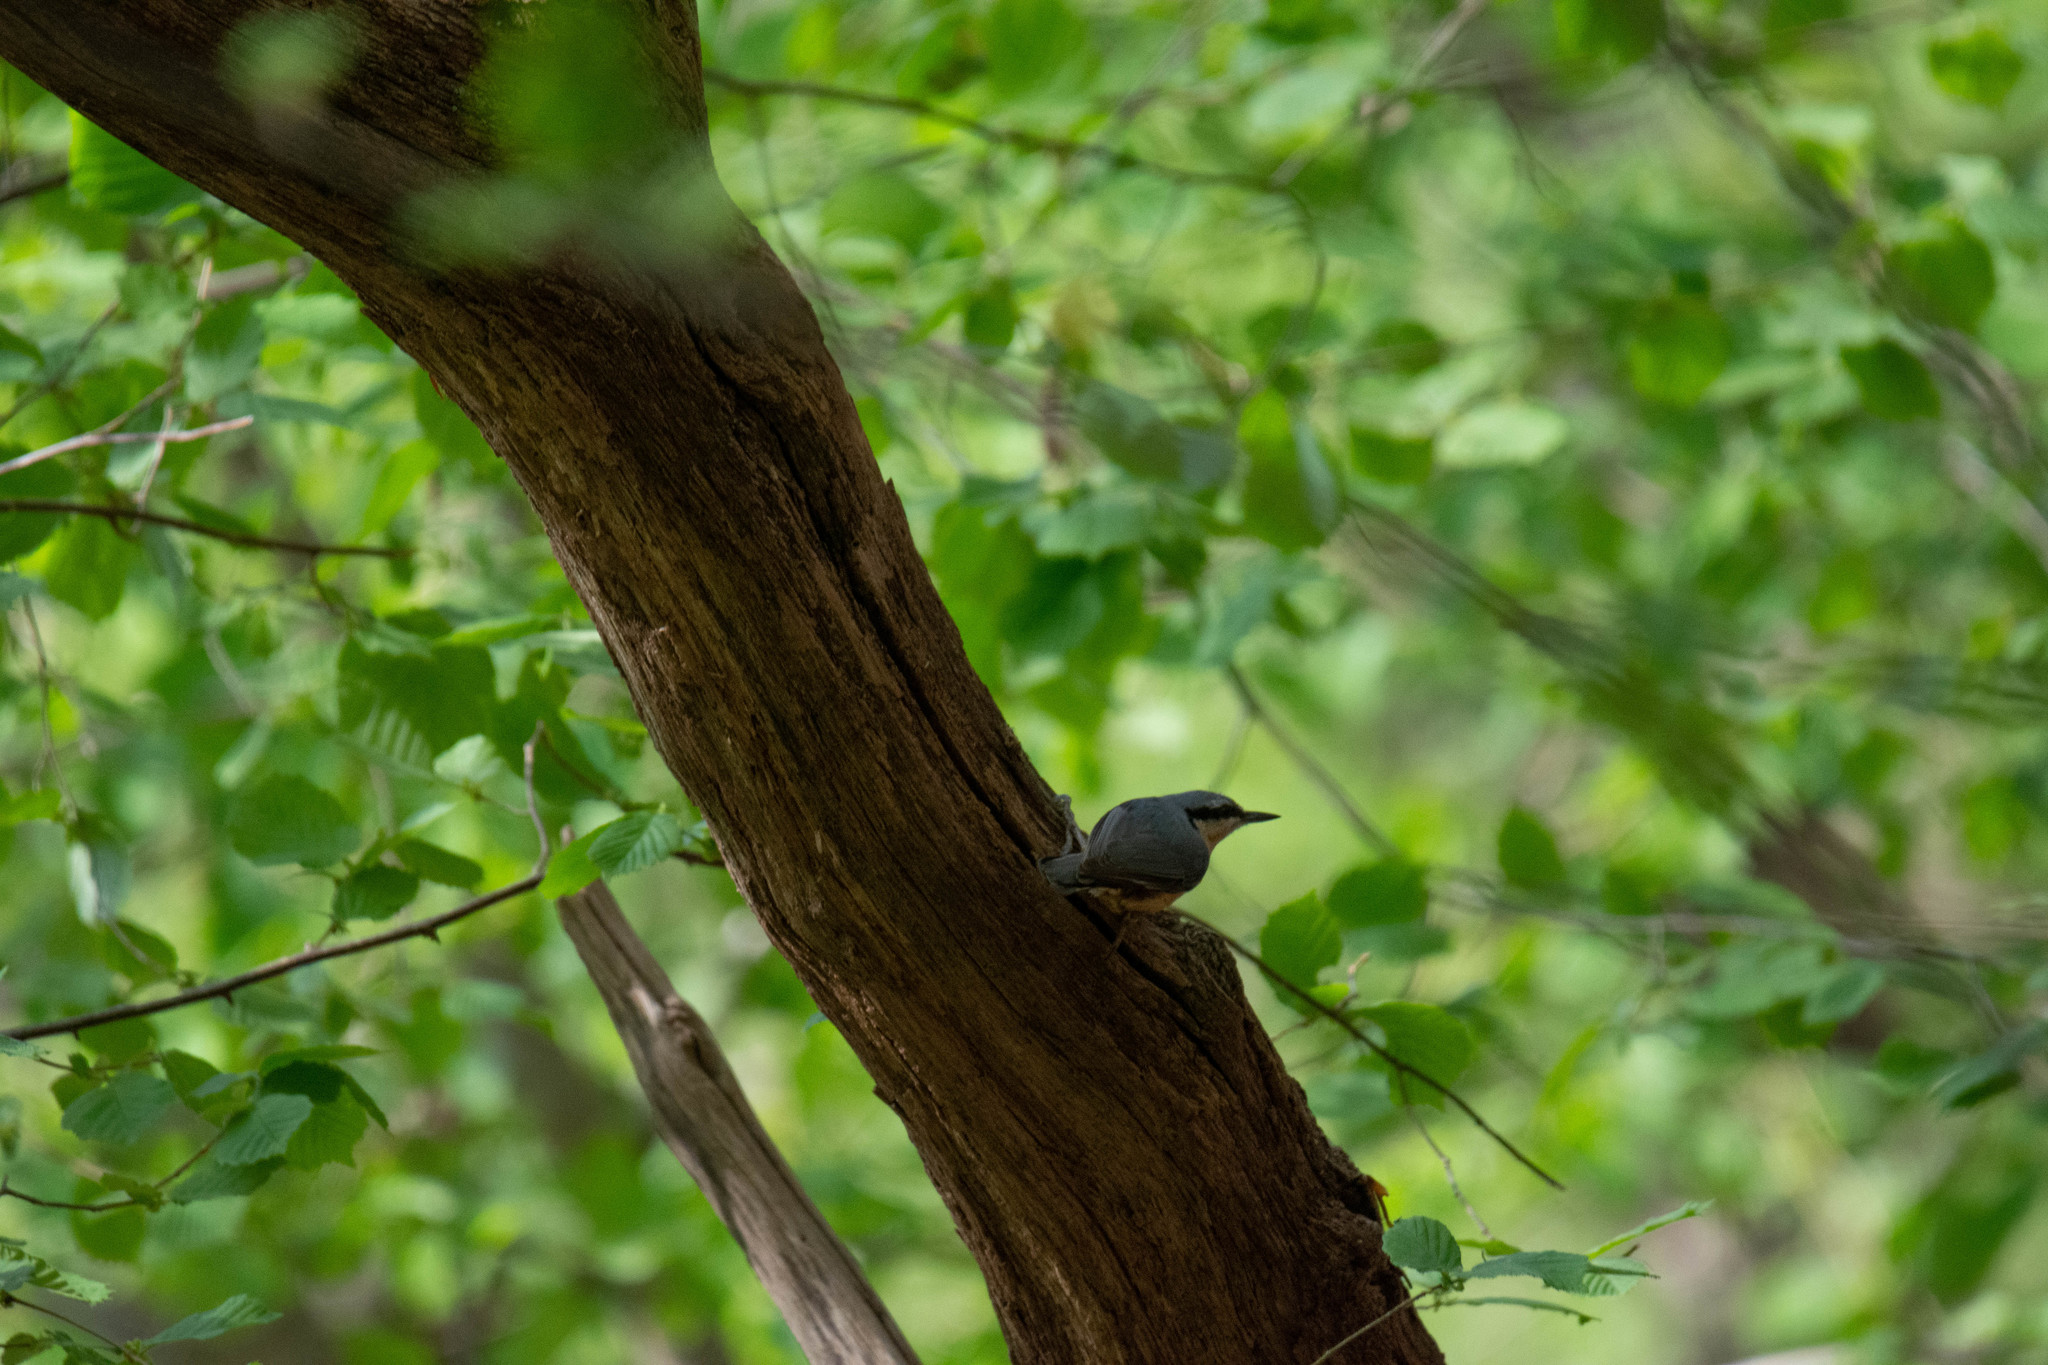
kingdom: Animalia
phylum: Chordata
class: Aves
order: Passeriformes
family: Sittidae
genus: Sitta
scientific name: Sitta europaea
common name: Eurasian nuthatch
